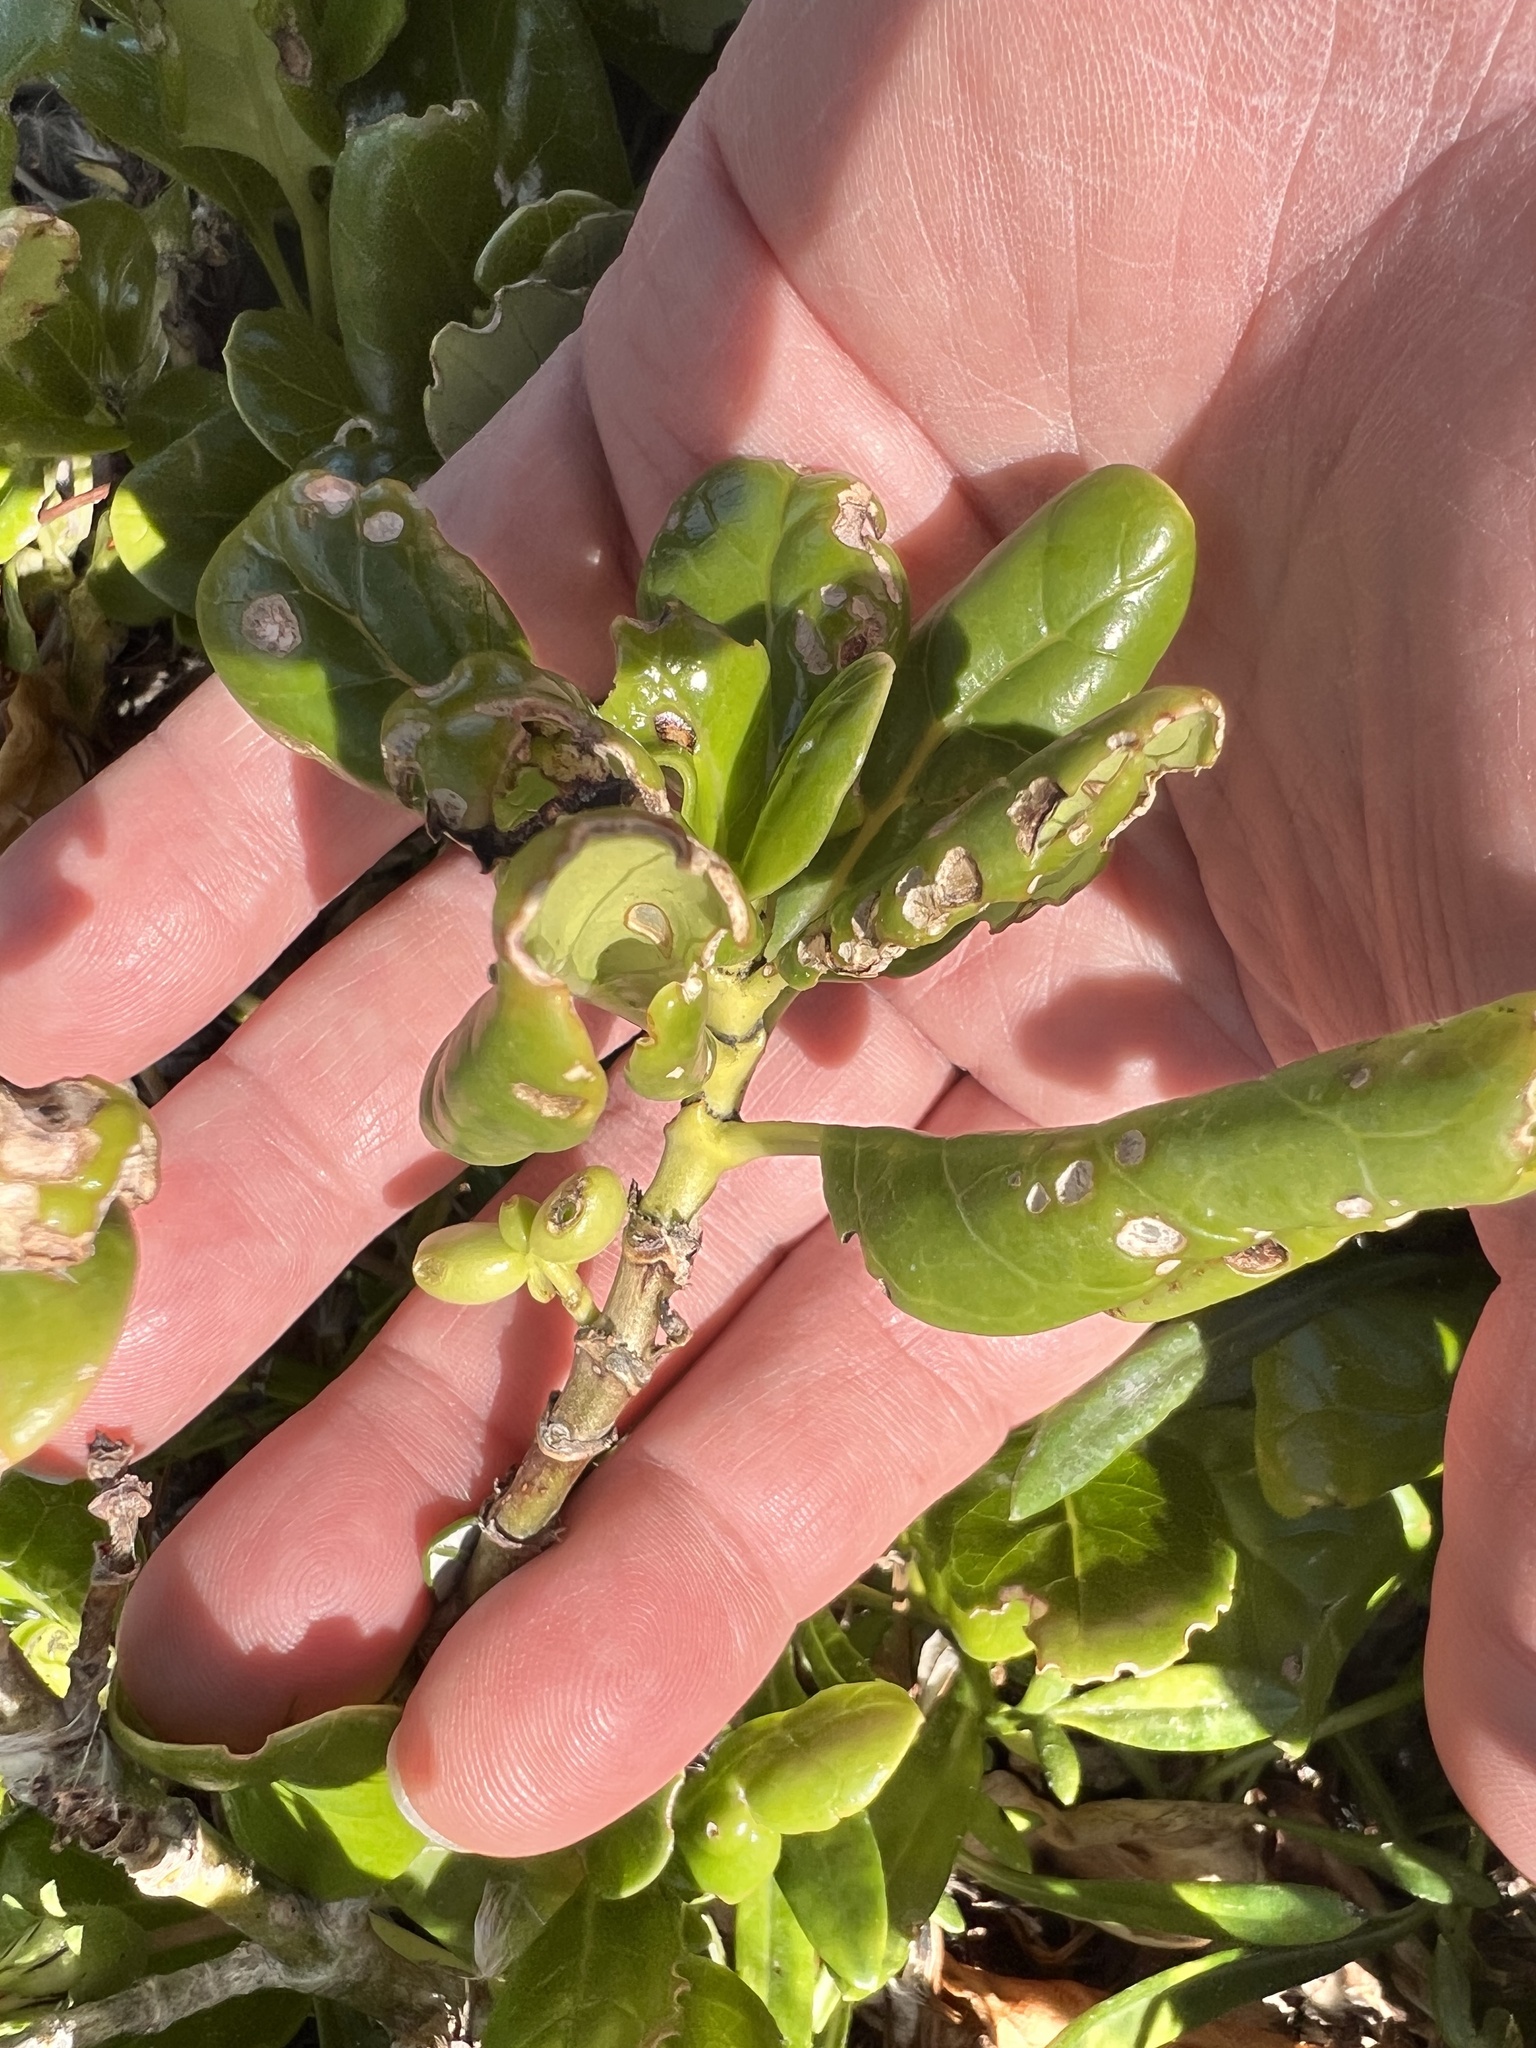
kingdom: Plantae
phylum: Tracheophyta
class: Magnoliopsida
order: Gentianales
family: Rubiaceae
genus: Coprosma
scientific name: Coprosma repens
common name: Tree bedstraw
